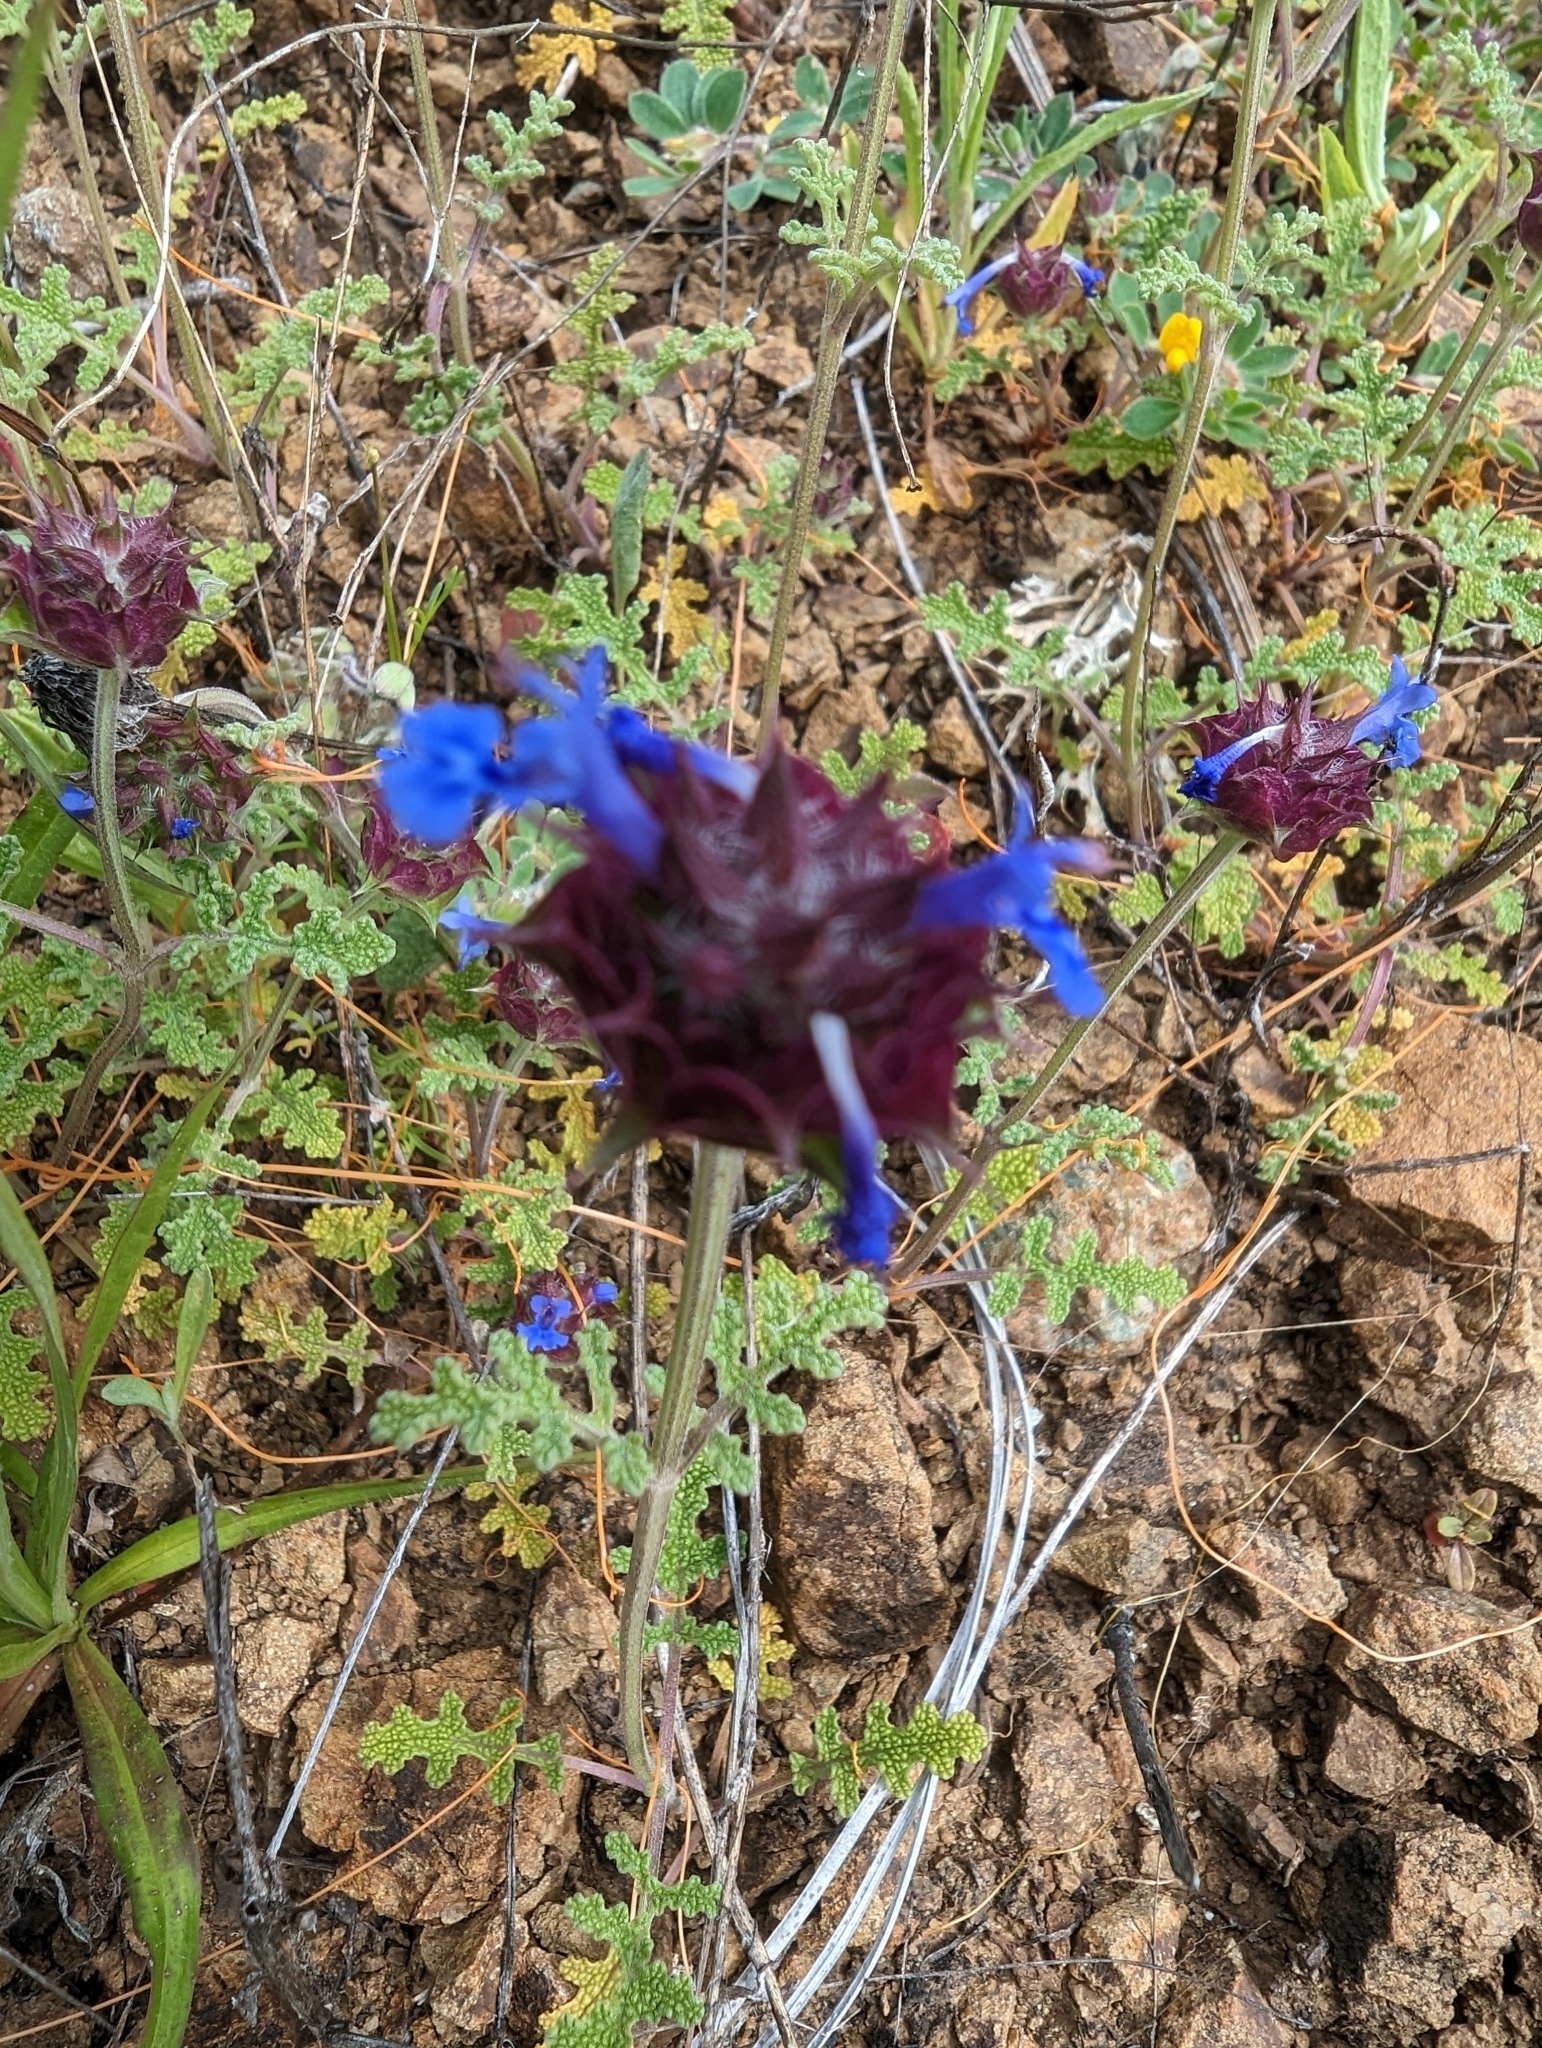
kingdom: Plantae
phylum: Tracheophyta
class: Magnoliopsida
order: Lamiales
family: Lamiaceae
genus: Salvia
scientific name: Salvia columbariae
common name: Chia
